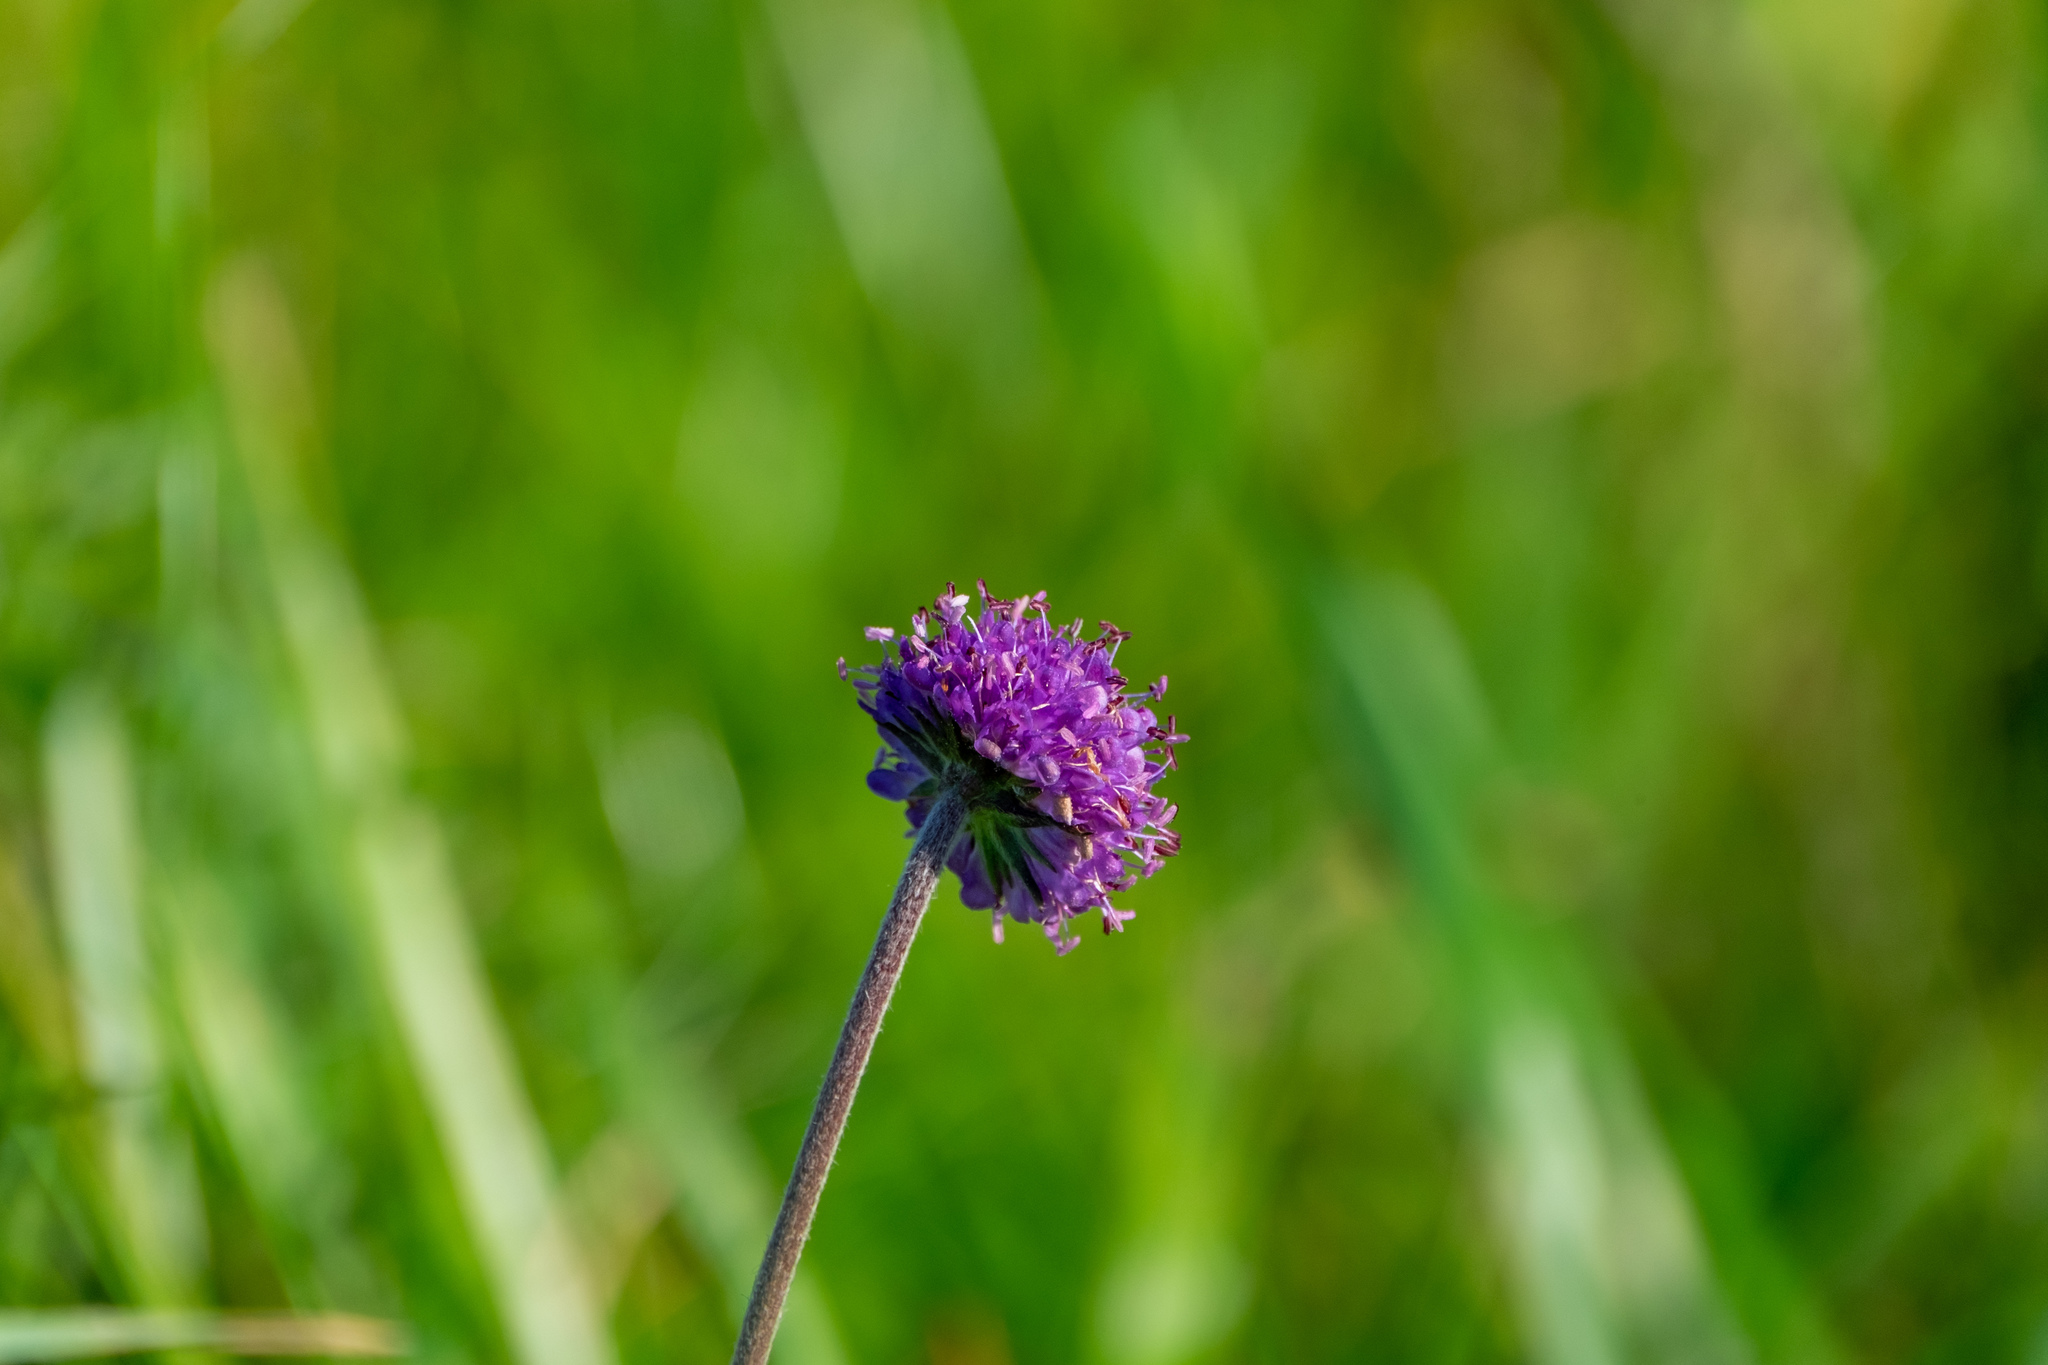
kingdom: Plantae
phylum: Tracheophyta
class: Magnoliopsida
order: Dipsacales
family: Caprifoliaceae
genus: Succisa
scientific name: Succisa pratensis
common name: Devil's-bit
